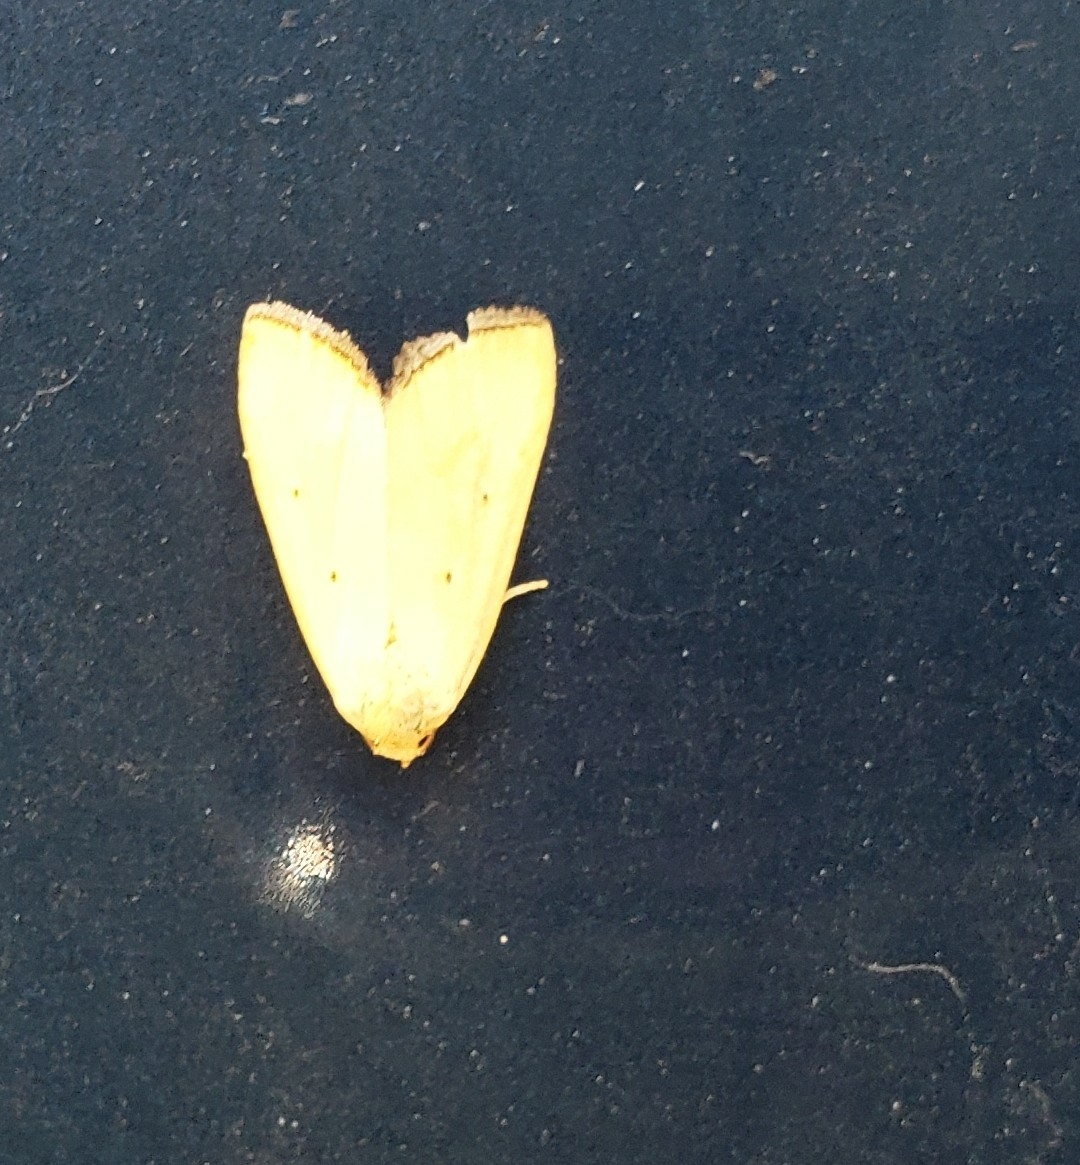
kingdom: Animalia
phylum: Arthropoda
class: Insecta
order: Lepidoptera
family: Noctuidae
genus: Marimatha
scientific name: Marimatha nigrofimbria
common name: Black-bordered lemon moth
